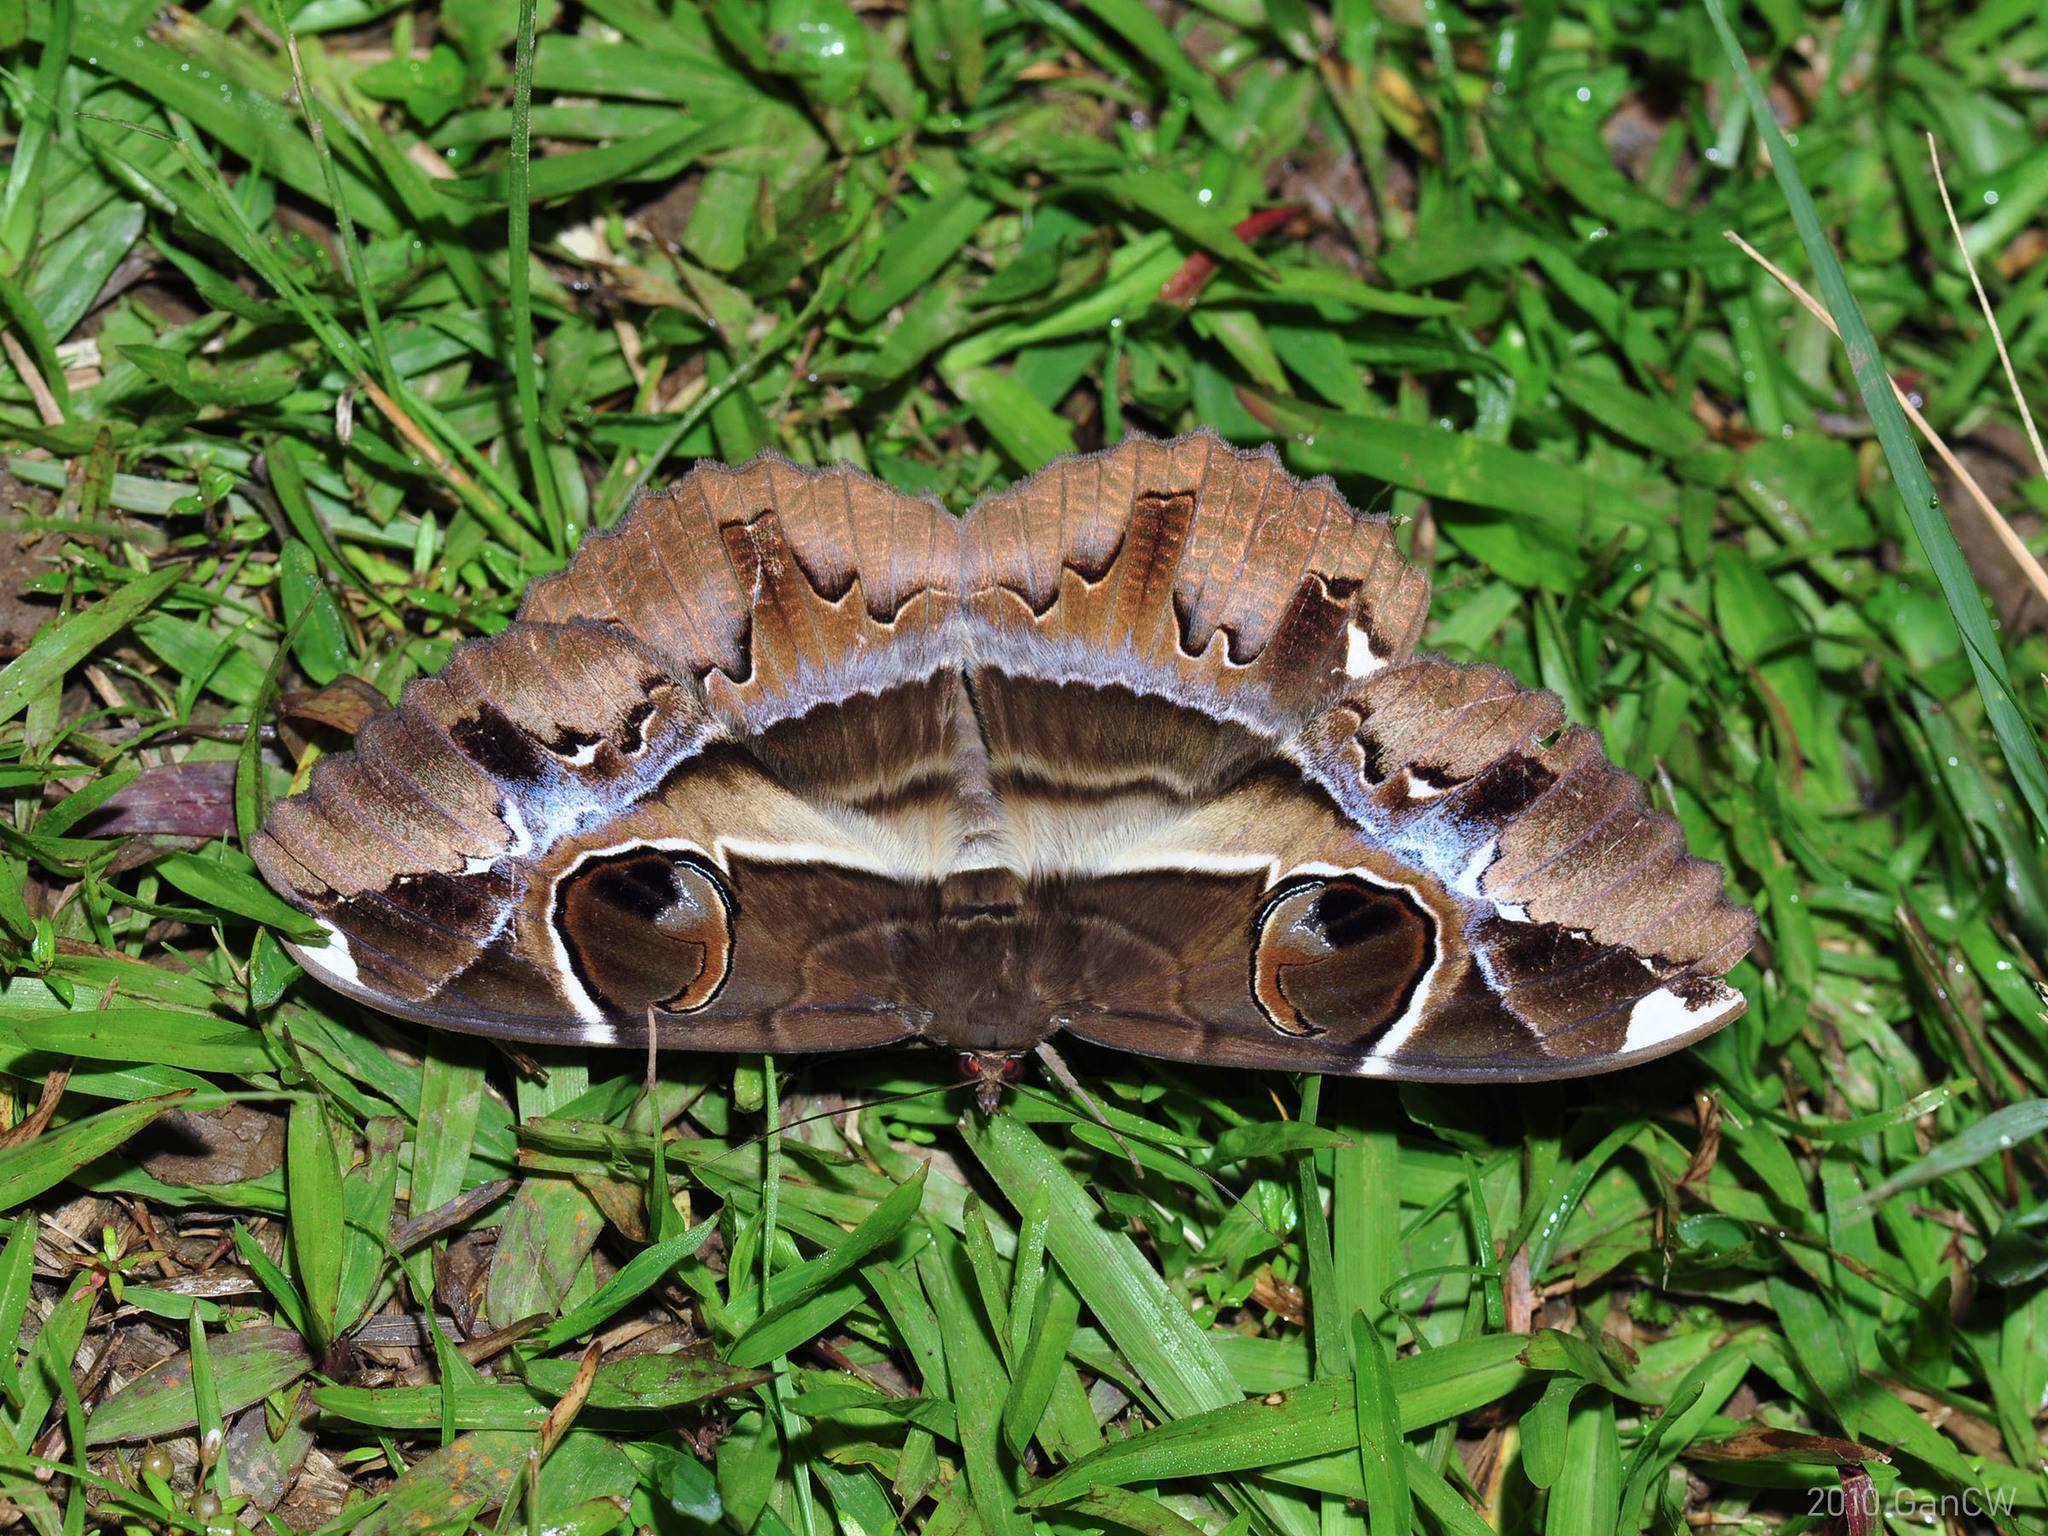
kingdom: Animalia
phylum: Arthropoda
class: Insecta
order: Lepidoptera
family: Erebidae
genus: Erebus
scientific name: Erebus ephesperis
